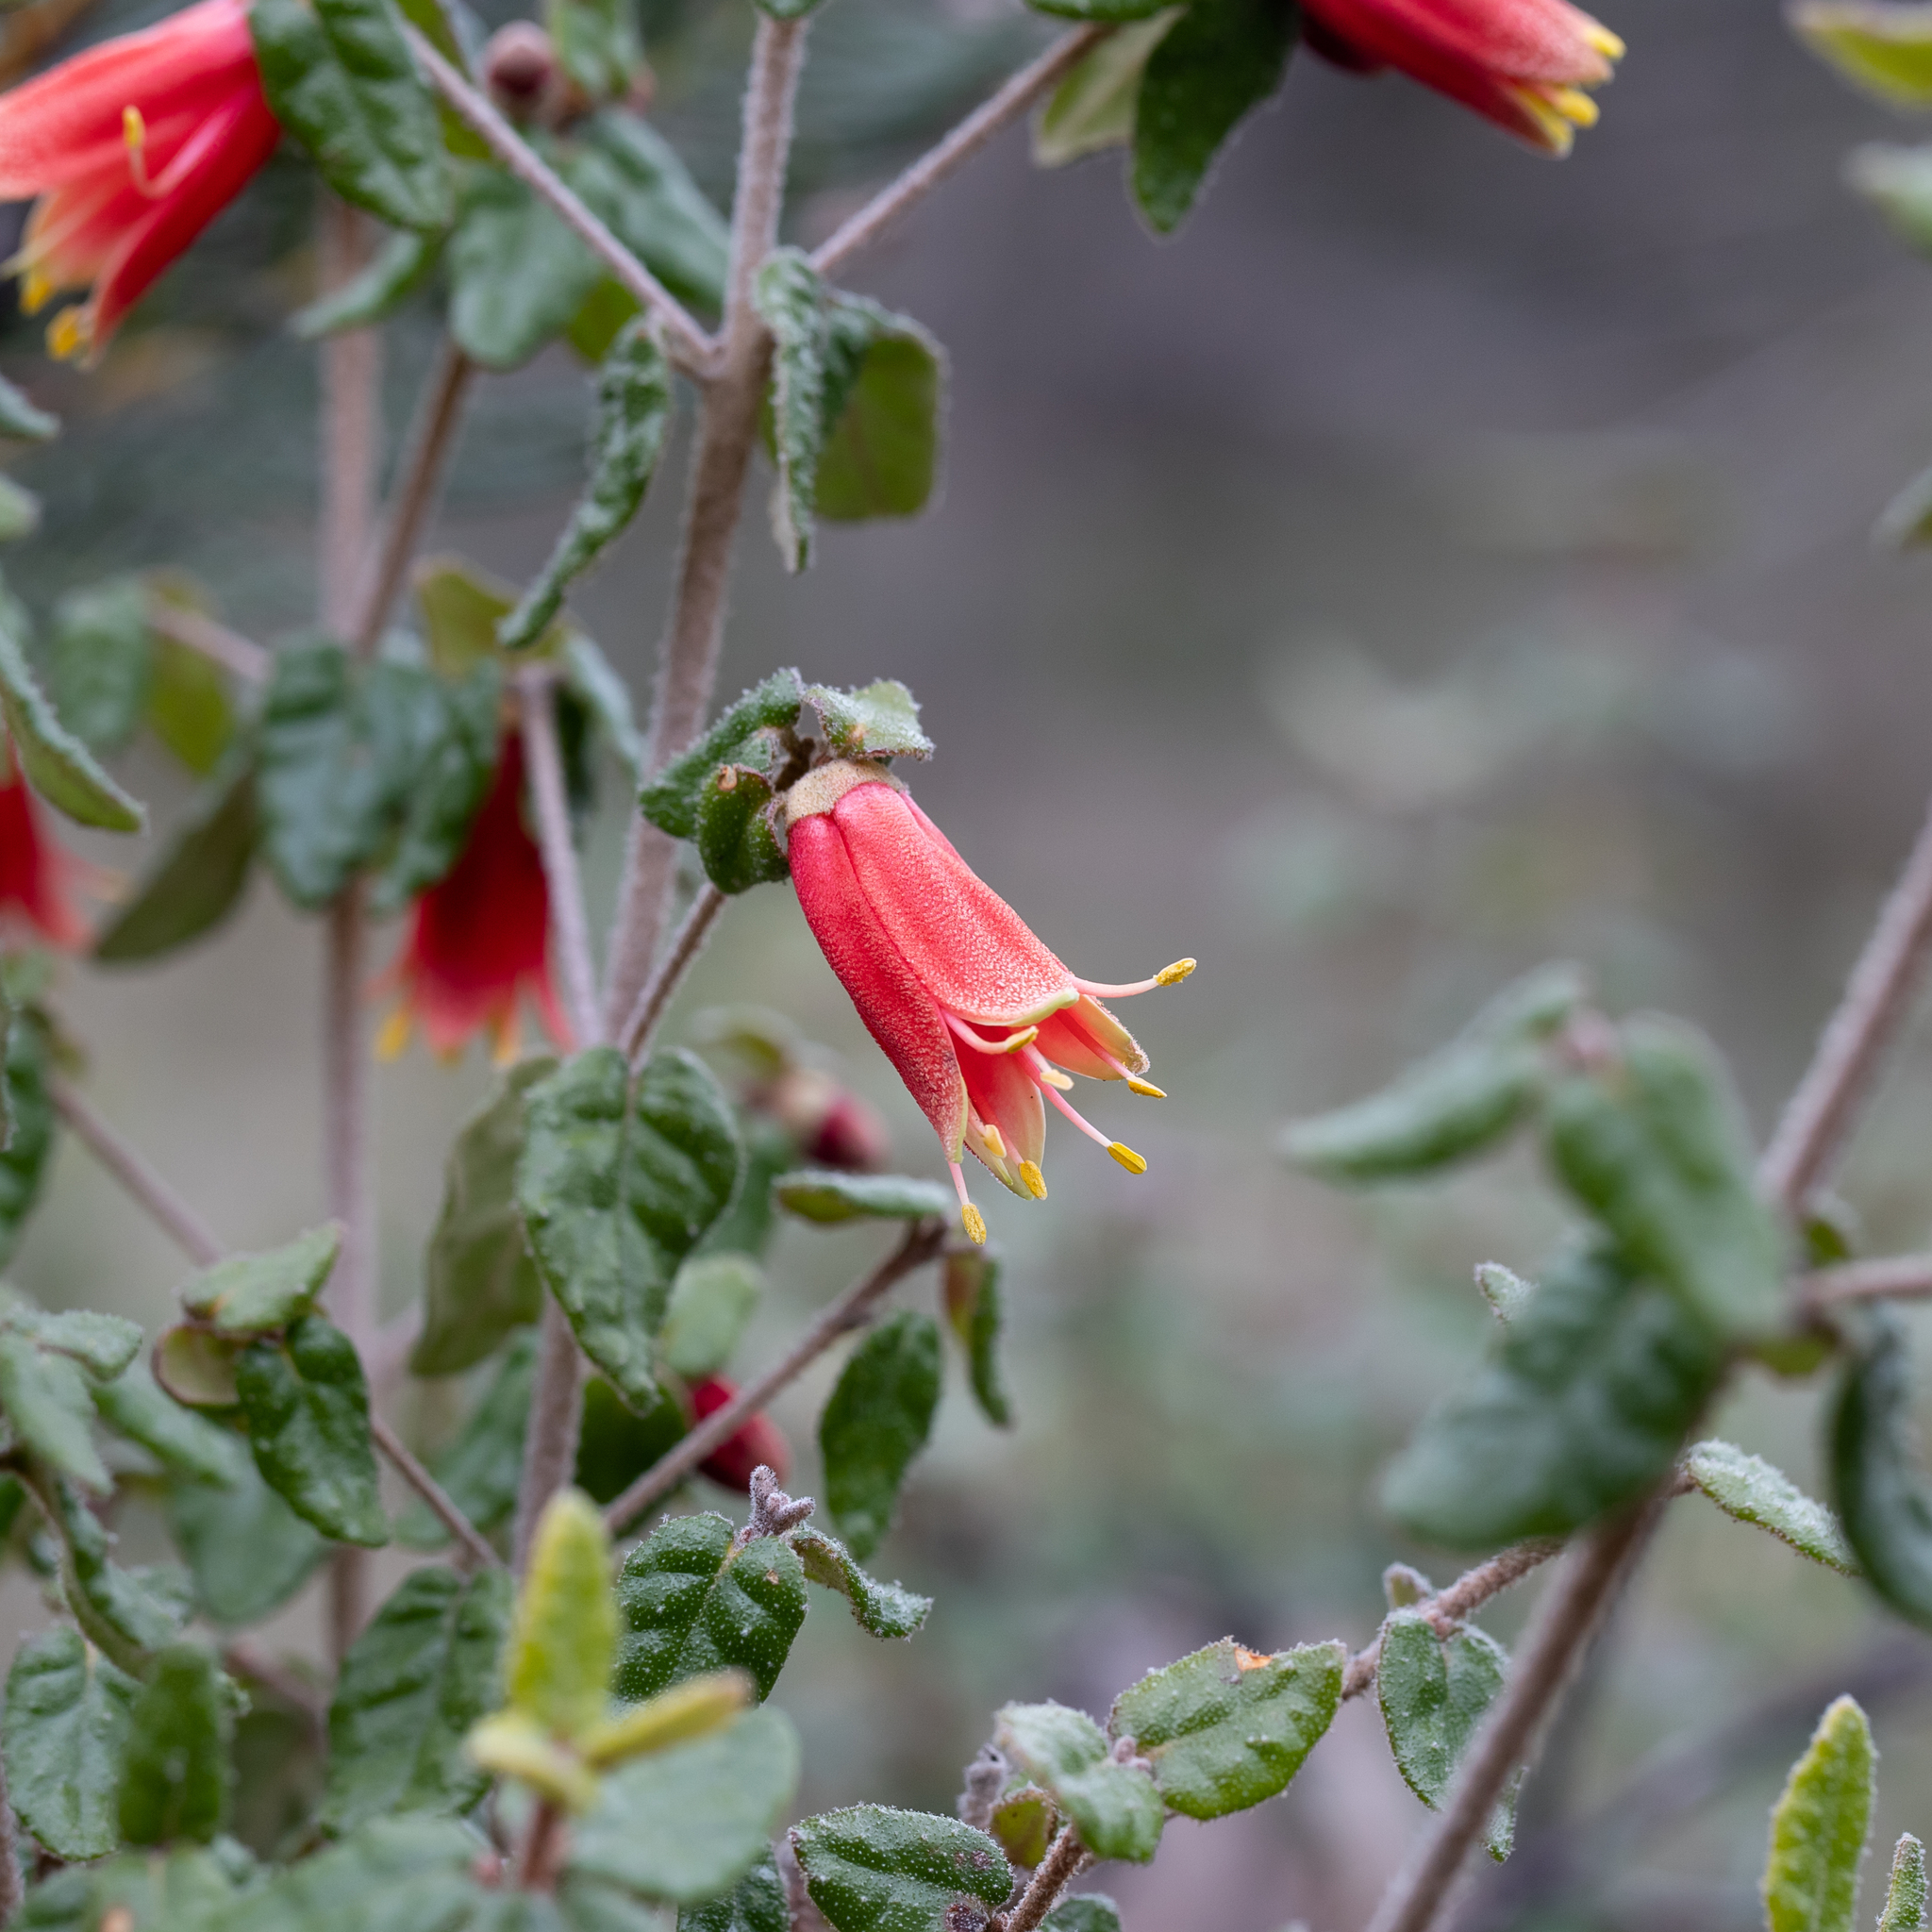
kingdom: Plantae
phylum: Tracheophyta
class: Magnoliopsida
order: Sapindales
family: Rutaceae
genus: Correa
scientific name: Correa reflexa
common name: Common correa
